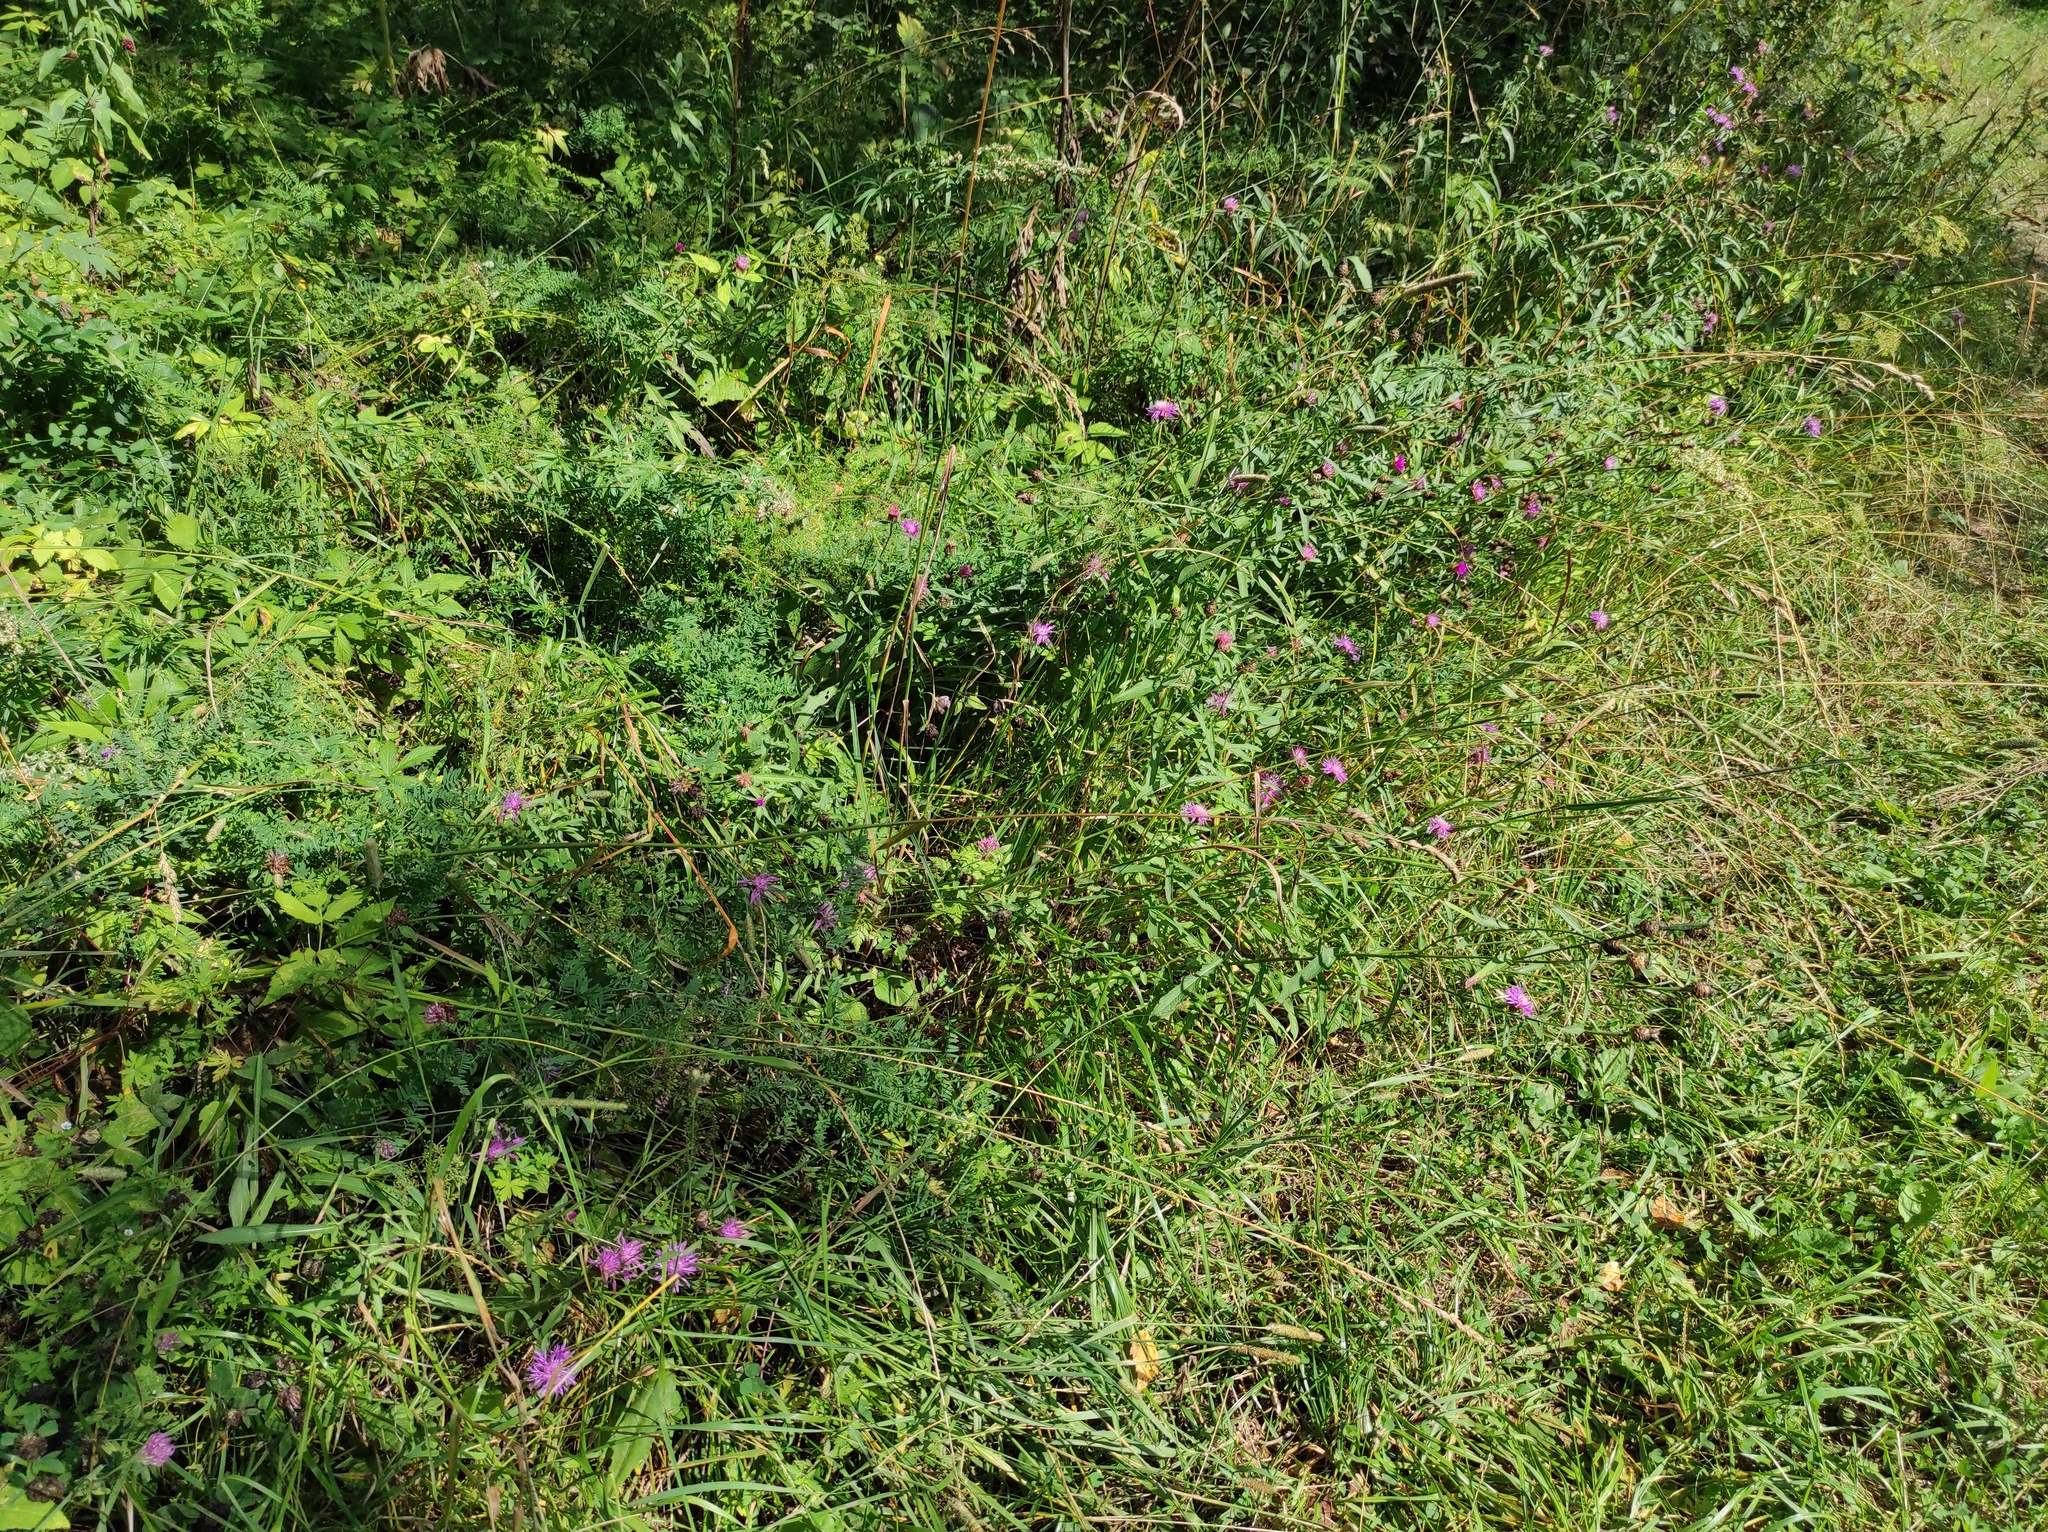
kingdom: Plantae
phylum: Tracheophyta
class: Magnoliopsida
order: Asterales
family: Asteraceae
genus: Centaurea
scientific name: Centaurea jacea
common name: Brown knapweed
